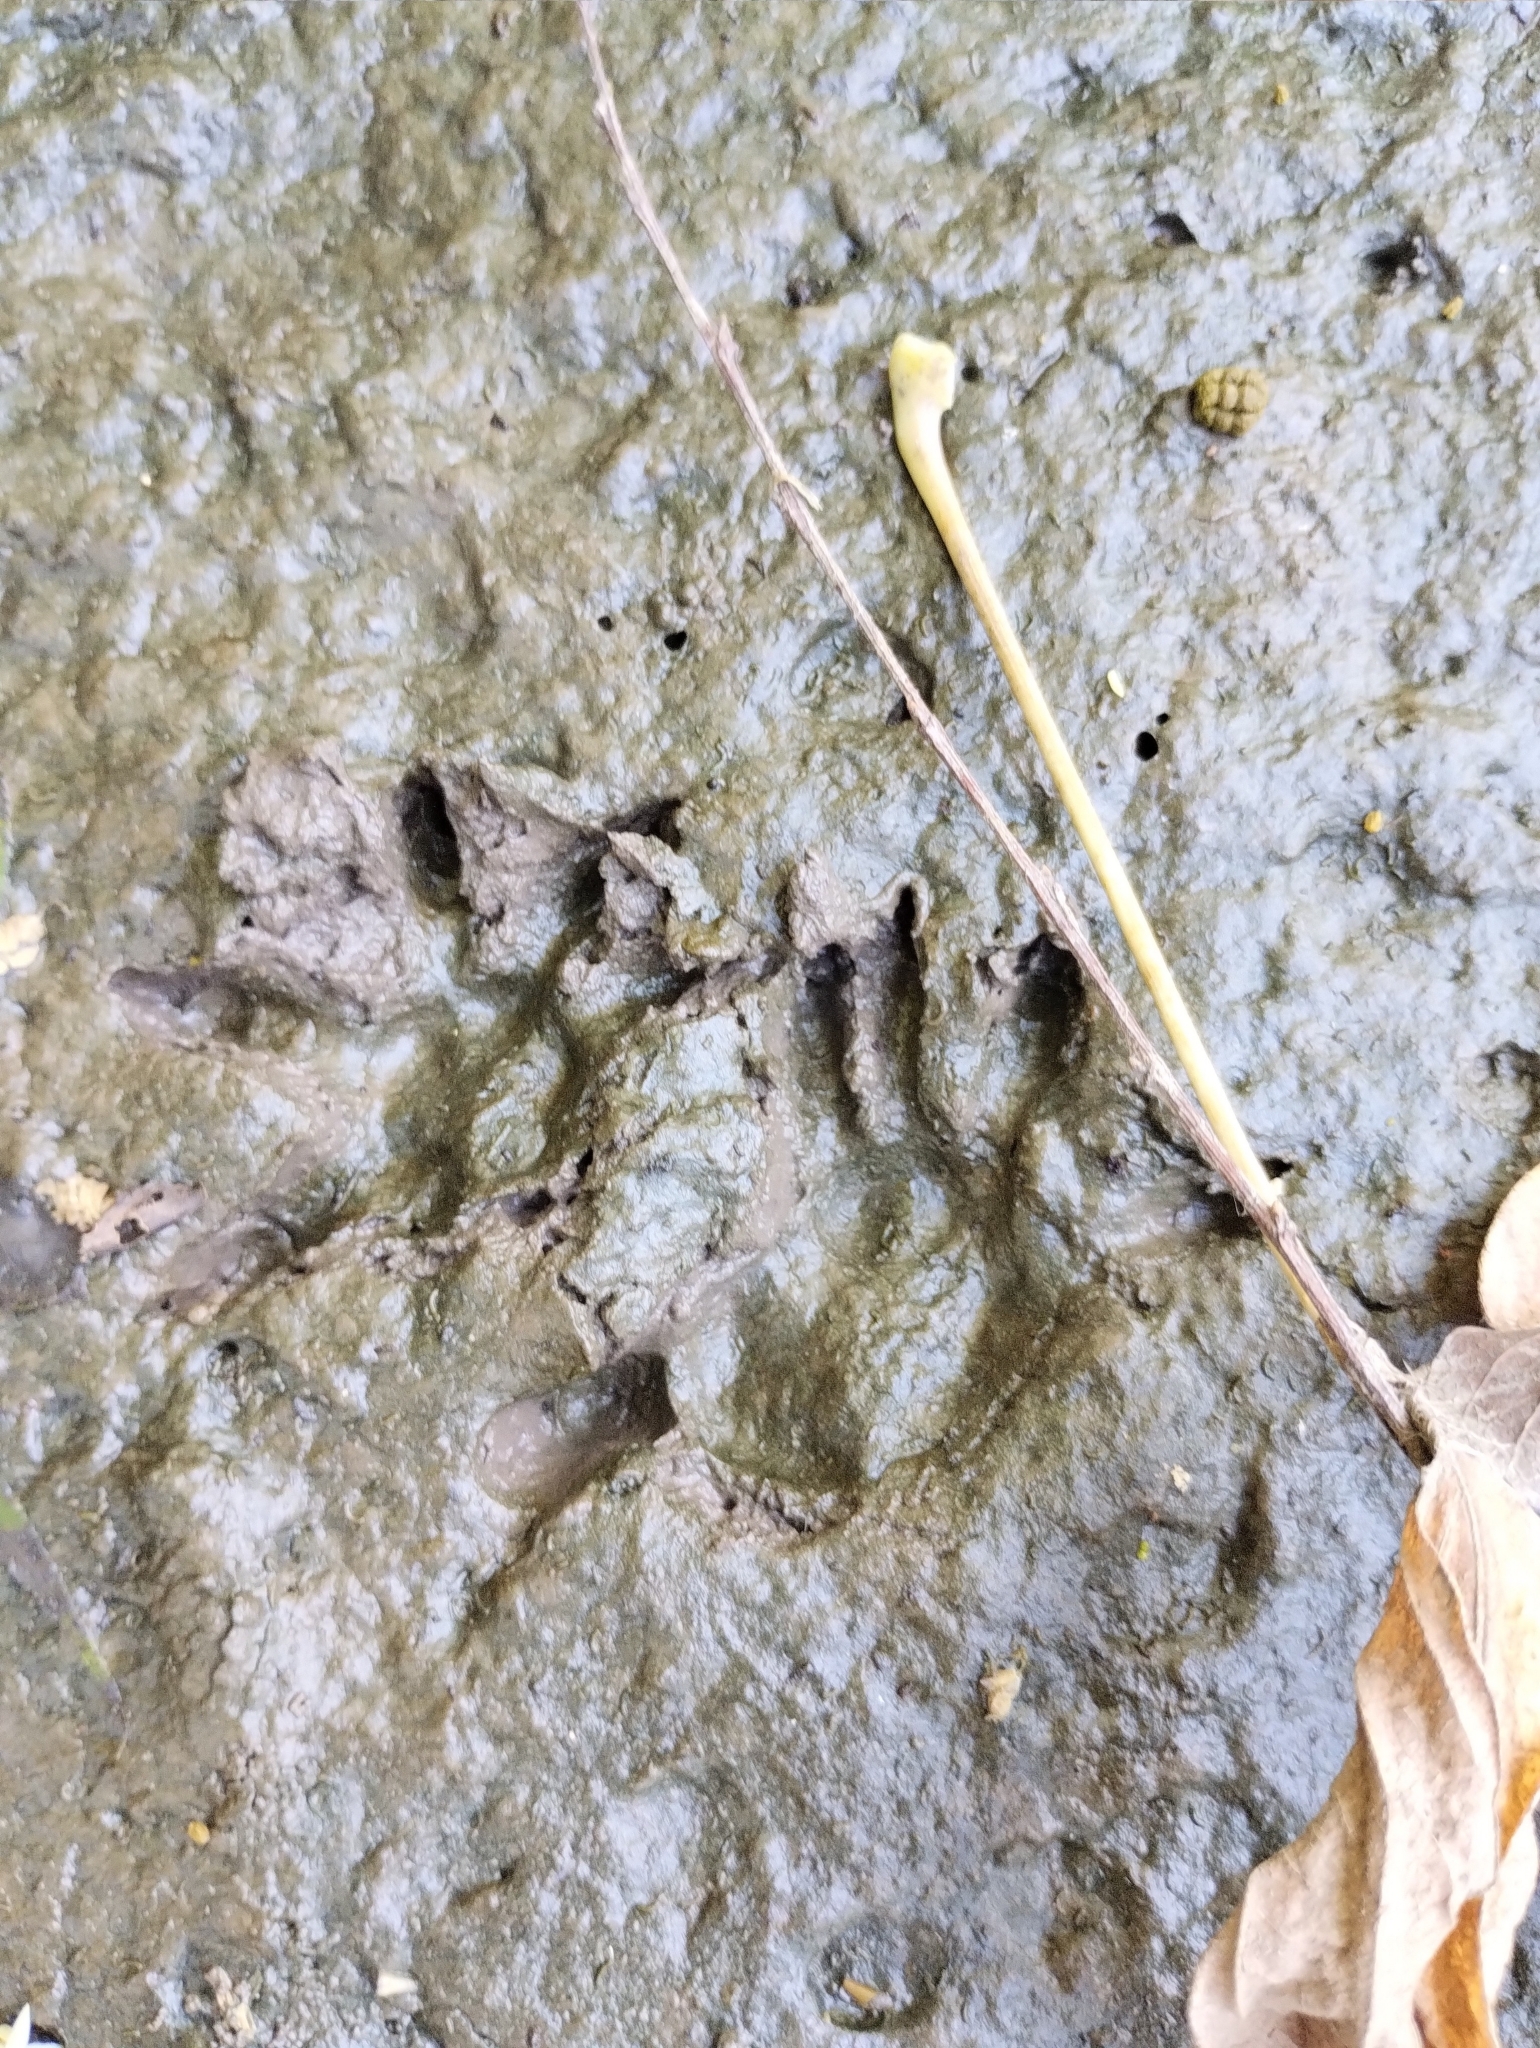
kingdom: Animalia
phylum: Chordata
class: Mammalia
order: Didelphimorphia
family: Didelphidae
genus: Didelphis
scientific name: Didelphis albiventris
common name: White-eared opossum
